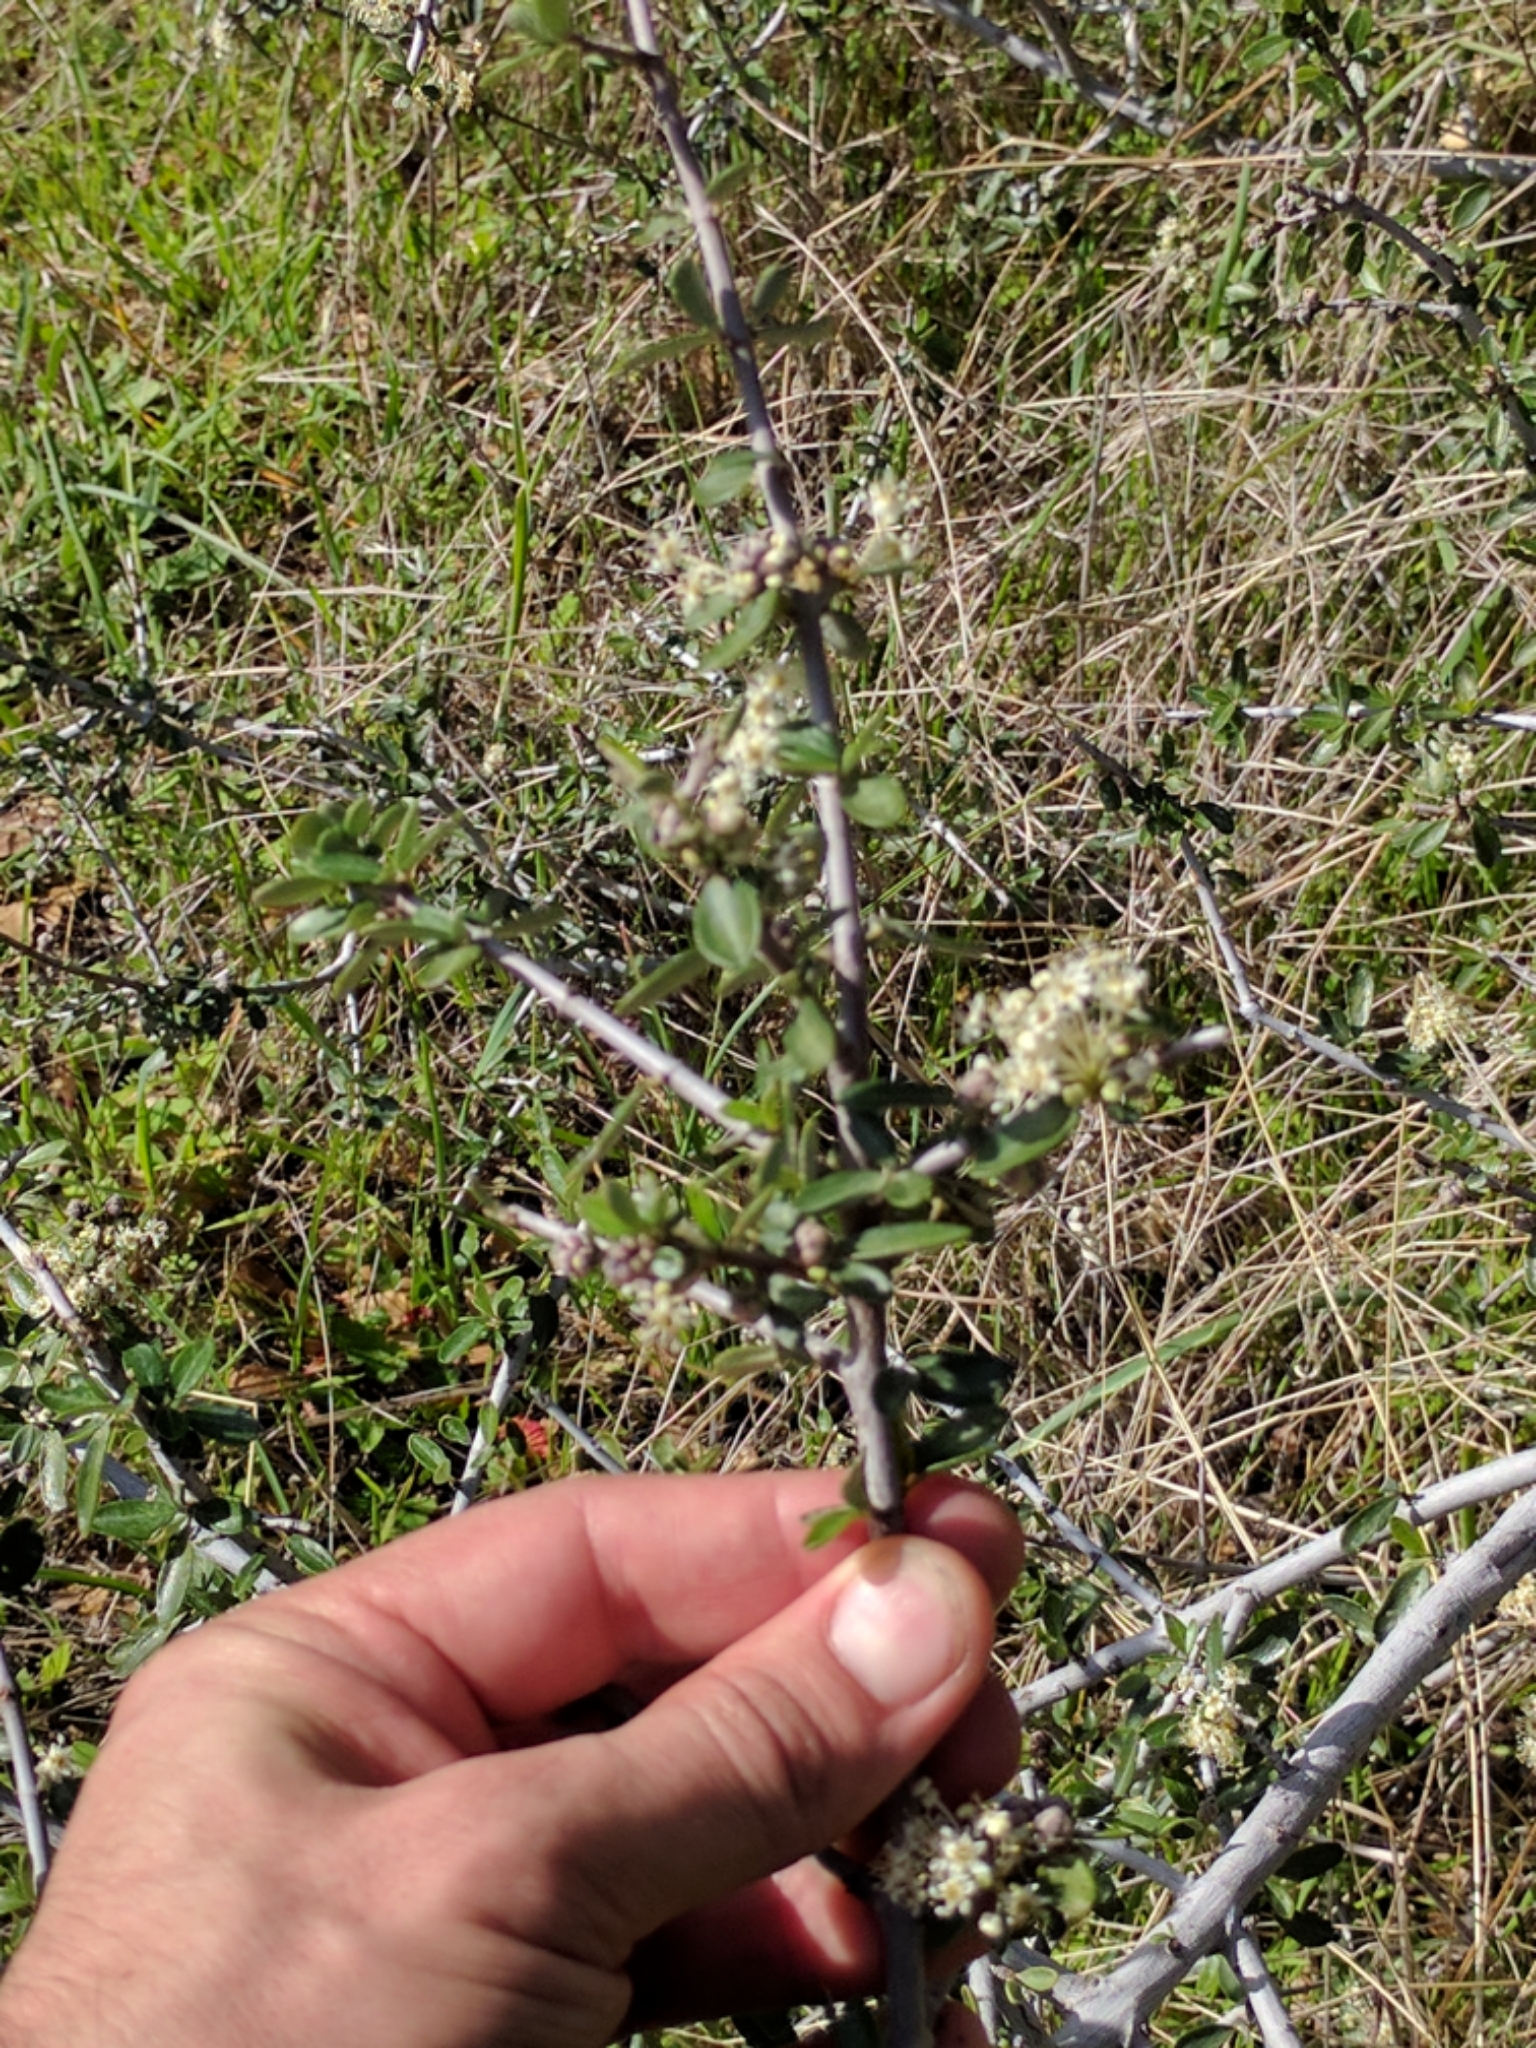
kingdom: Plantae
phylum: Tracheophyta
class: Magnoliopsida
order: Rosales
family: Rhamnaceae
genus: Ceanothus
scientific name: Ceanothus cuneatus
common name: Cuneate ceanothus
